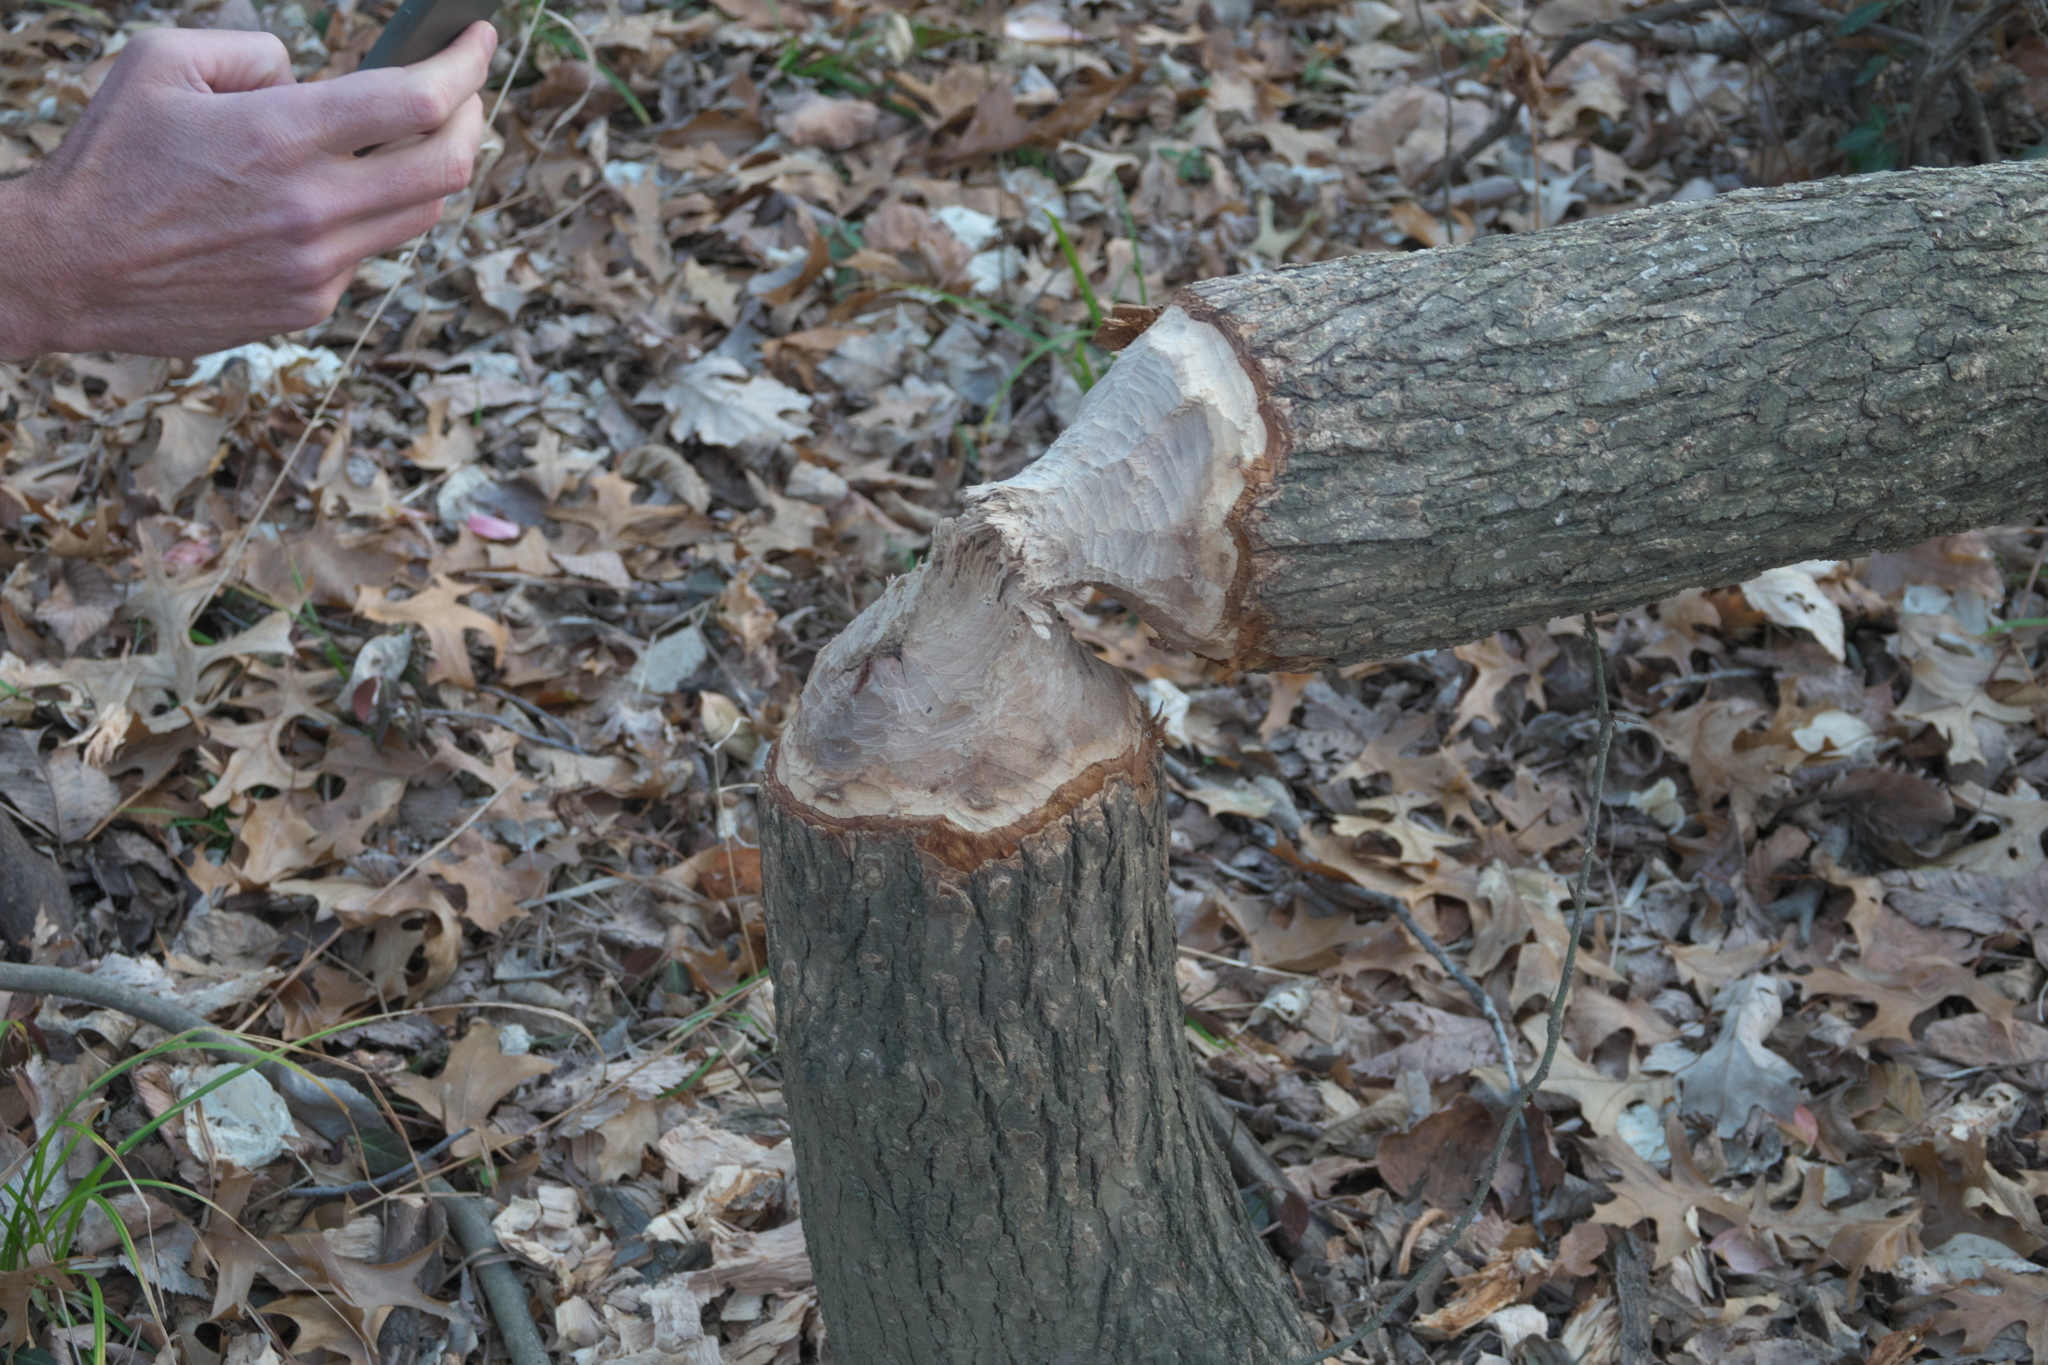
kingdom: Animalia
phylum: Chordata
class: Mammalia
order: Rodentia
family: Castoridae
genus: Castor
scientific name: Castor canadensis
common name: American beaver
